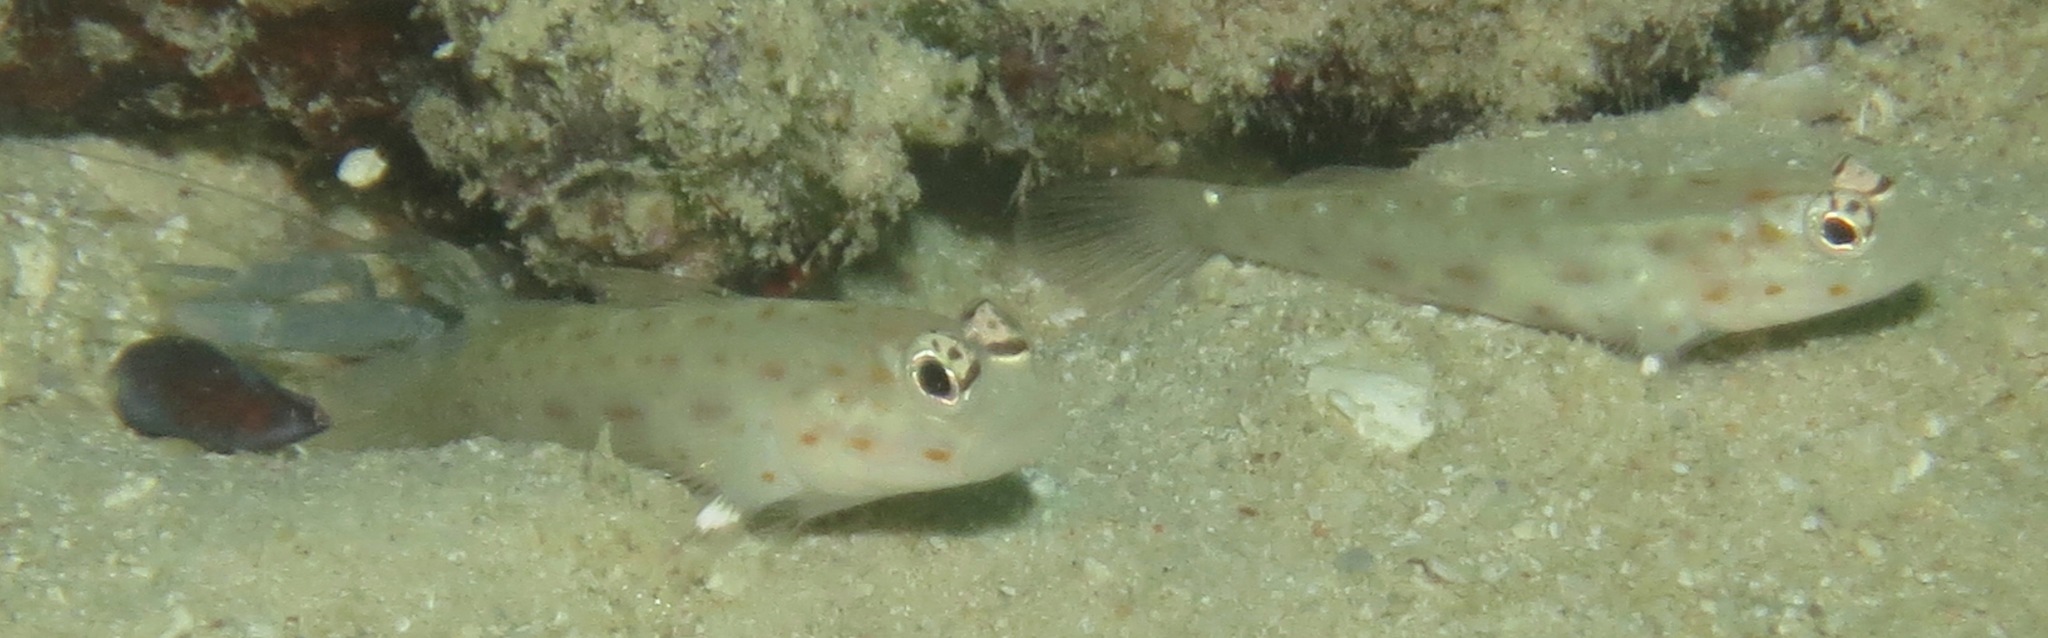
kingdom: Animalia
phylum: Chordata
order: Perciformes
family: Gobiidae
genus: Ctenogobiops
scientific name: Ctenogobiops mitodes
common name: Thread shrimpgoby
